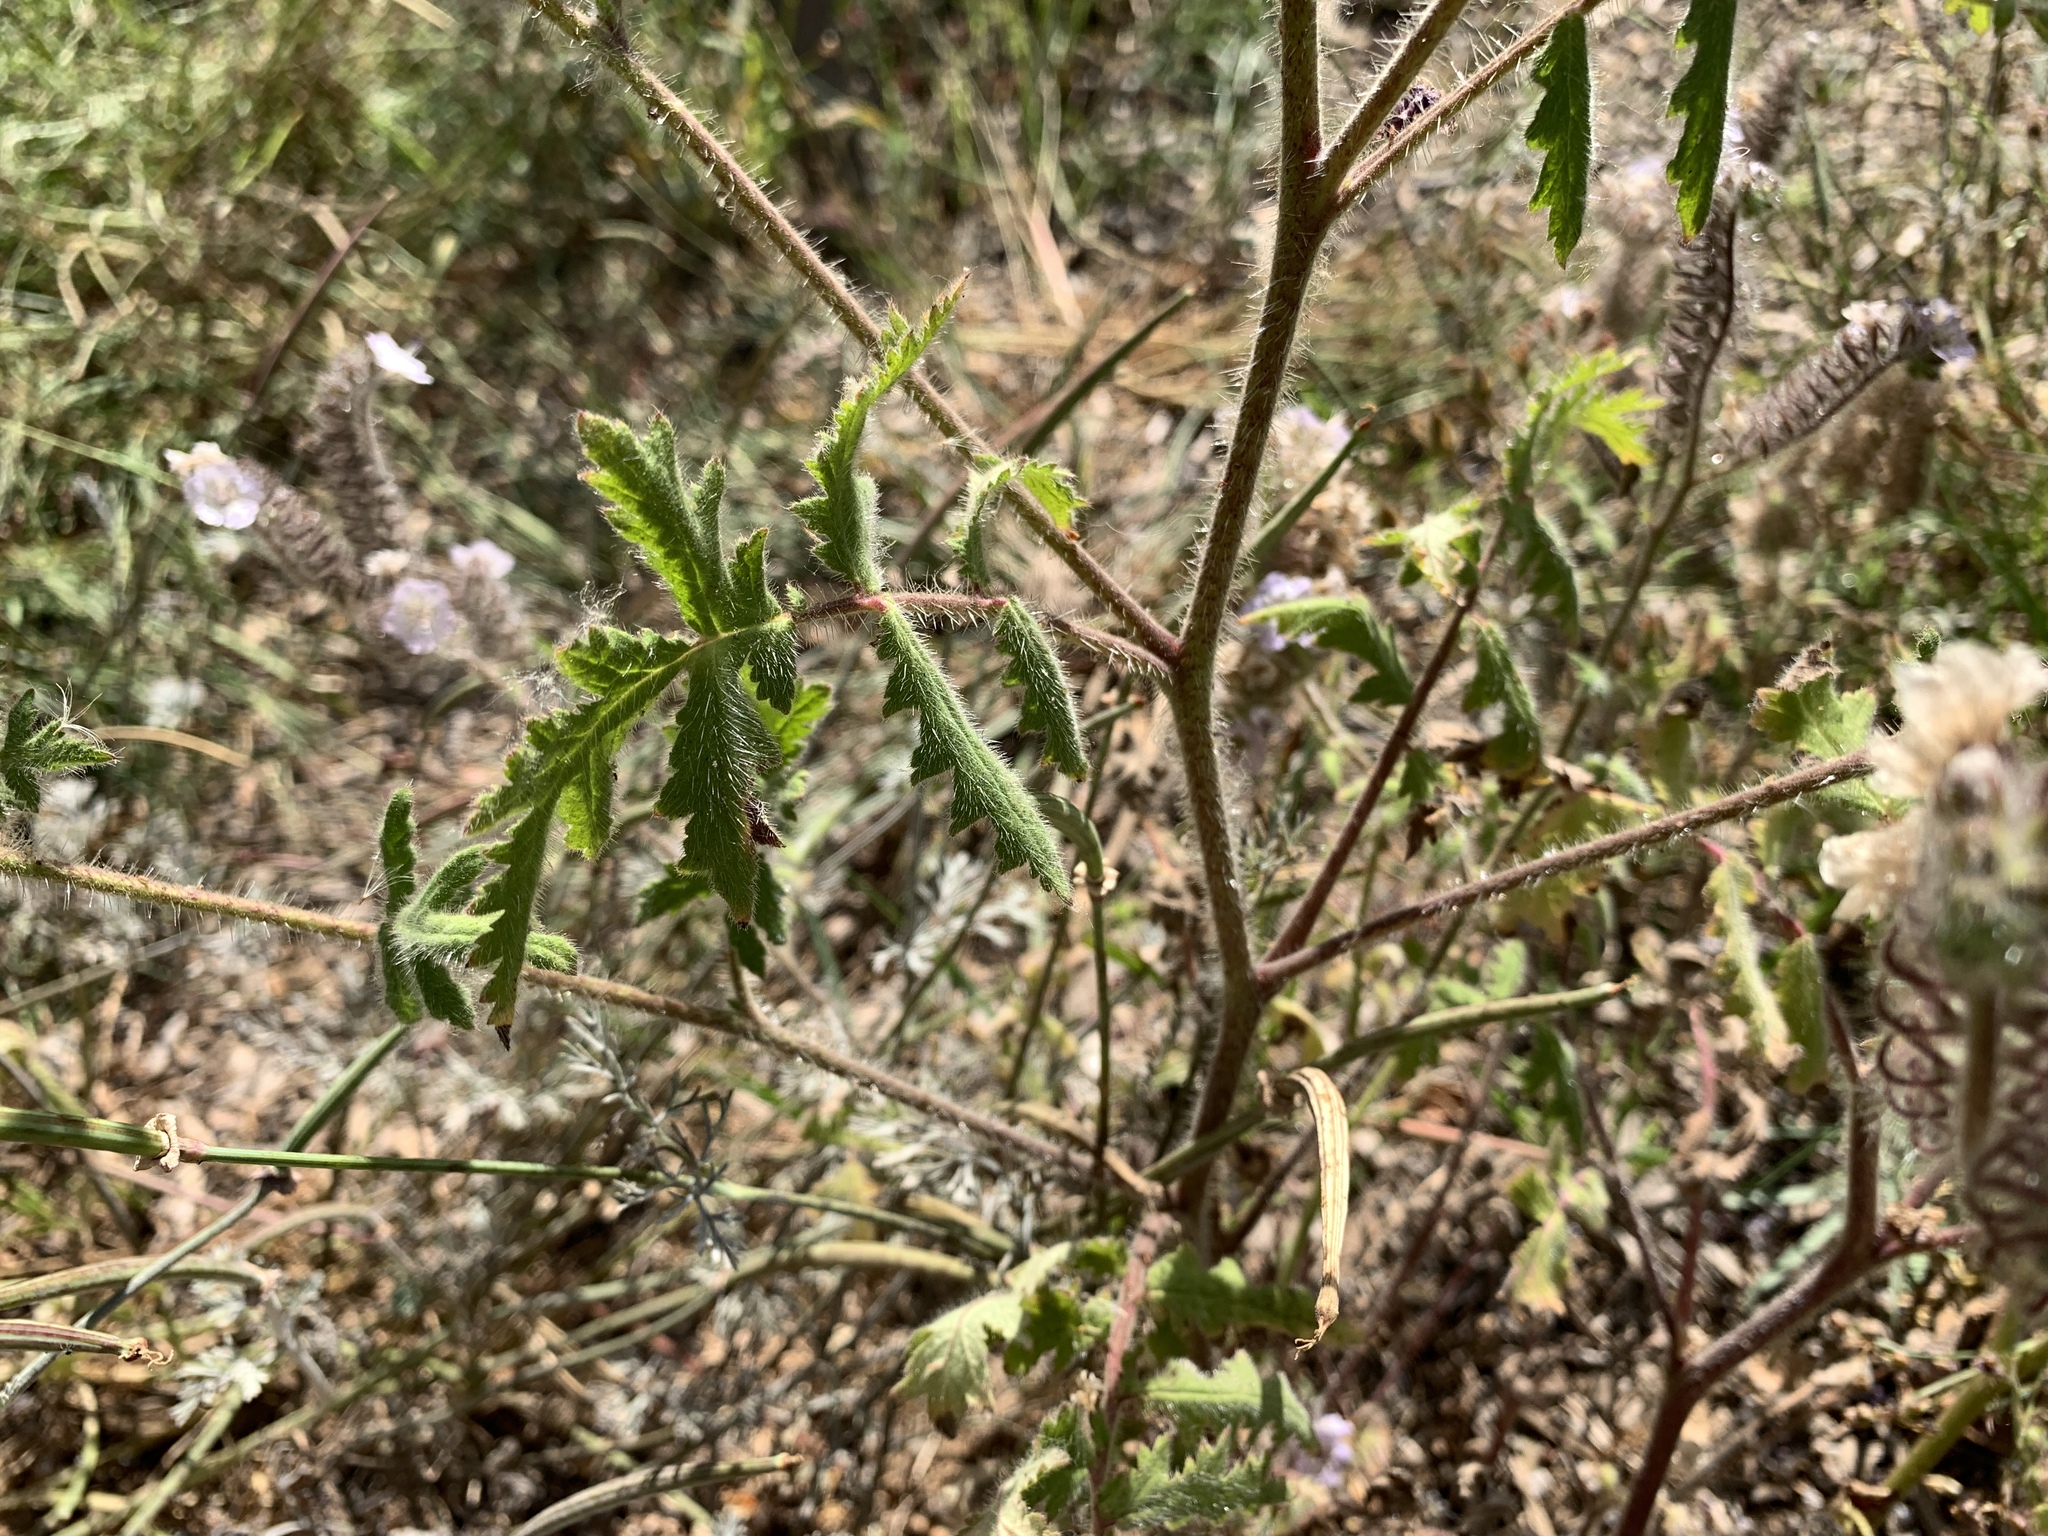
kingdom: Plantae
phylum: Tracheophyta
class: Magnoliopsida
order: Boraginales
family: Hydrophyllaceae
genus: Phacelia
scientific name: Phacelia cicutaria
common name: Caterpillar phacelia
